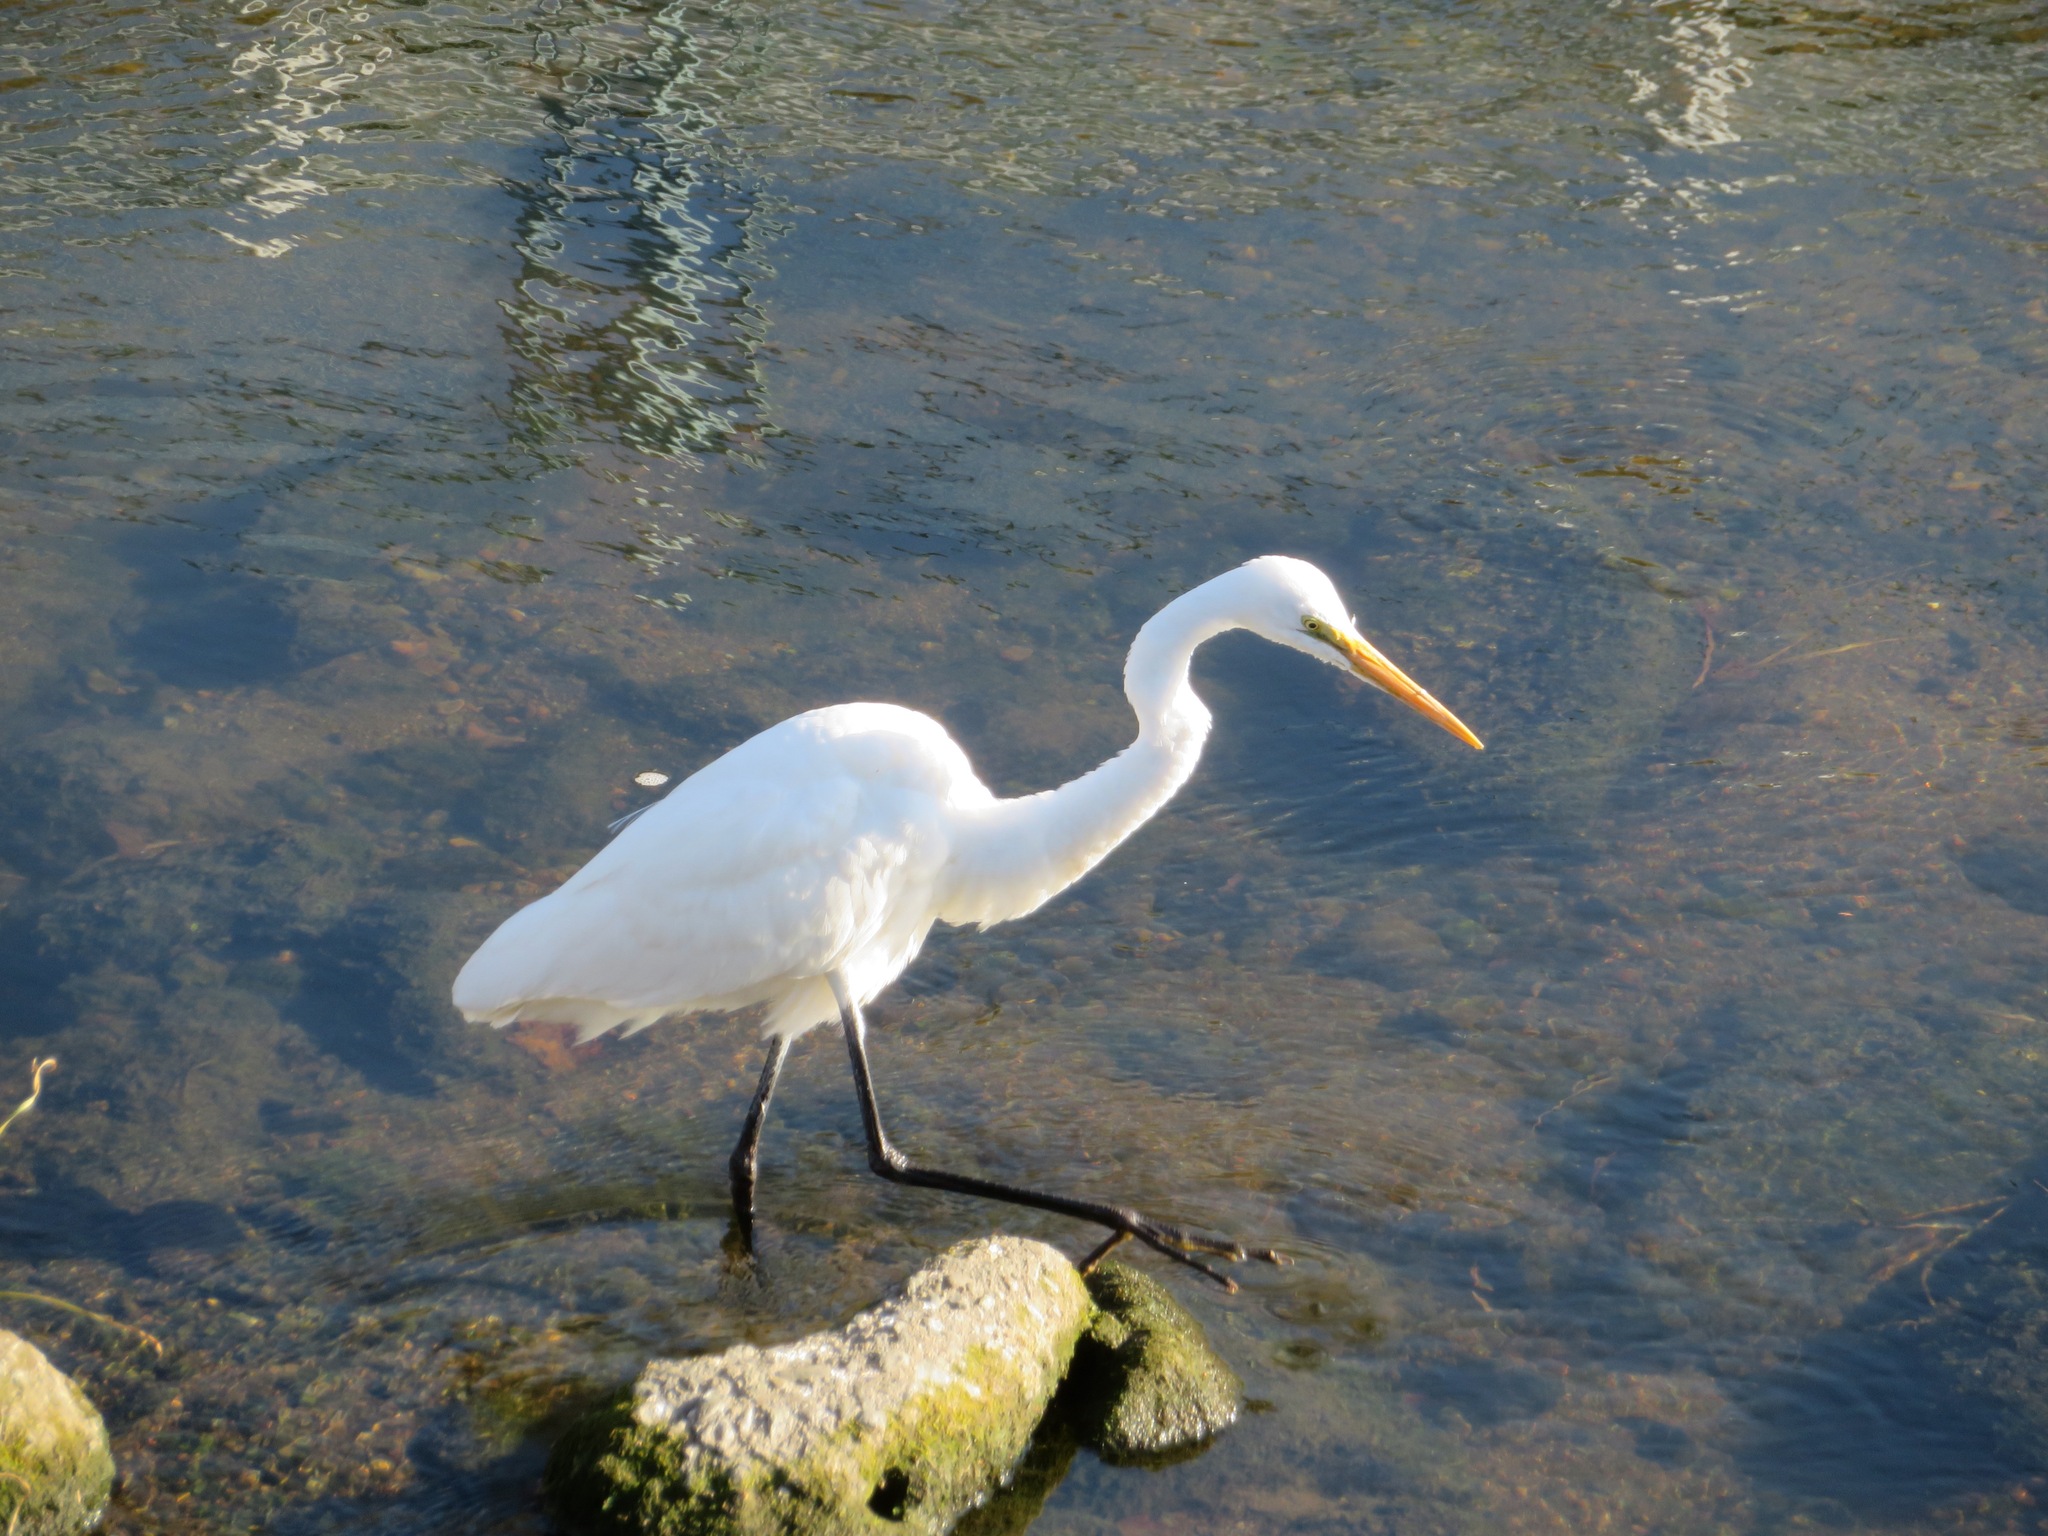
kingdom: Animalia
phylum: Chordata
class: Aves
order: Pelecaniformes
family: Ardeidae
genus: Ardea
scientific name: Ardea alba
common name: Great egret
